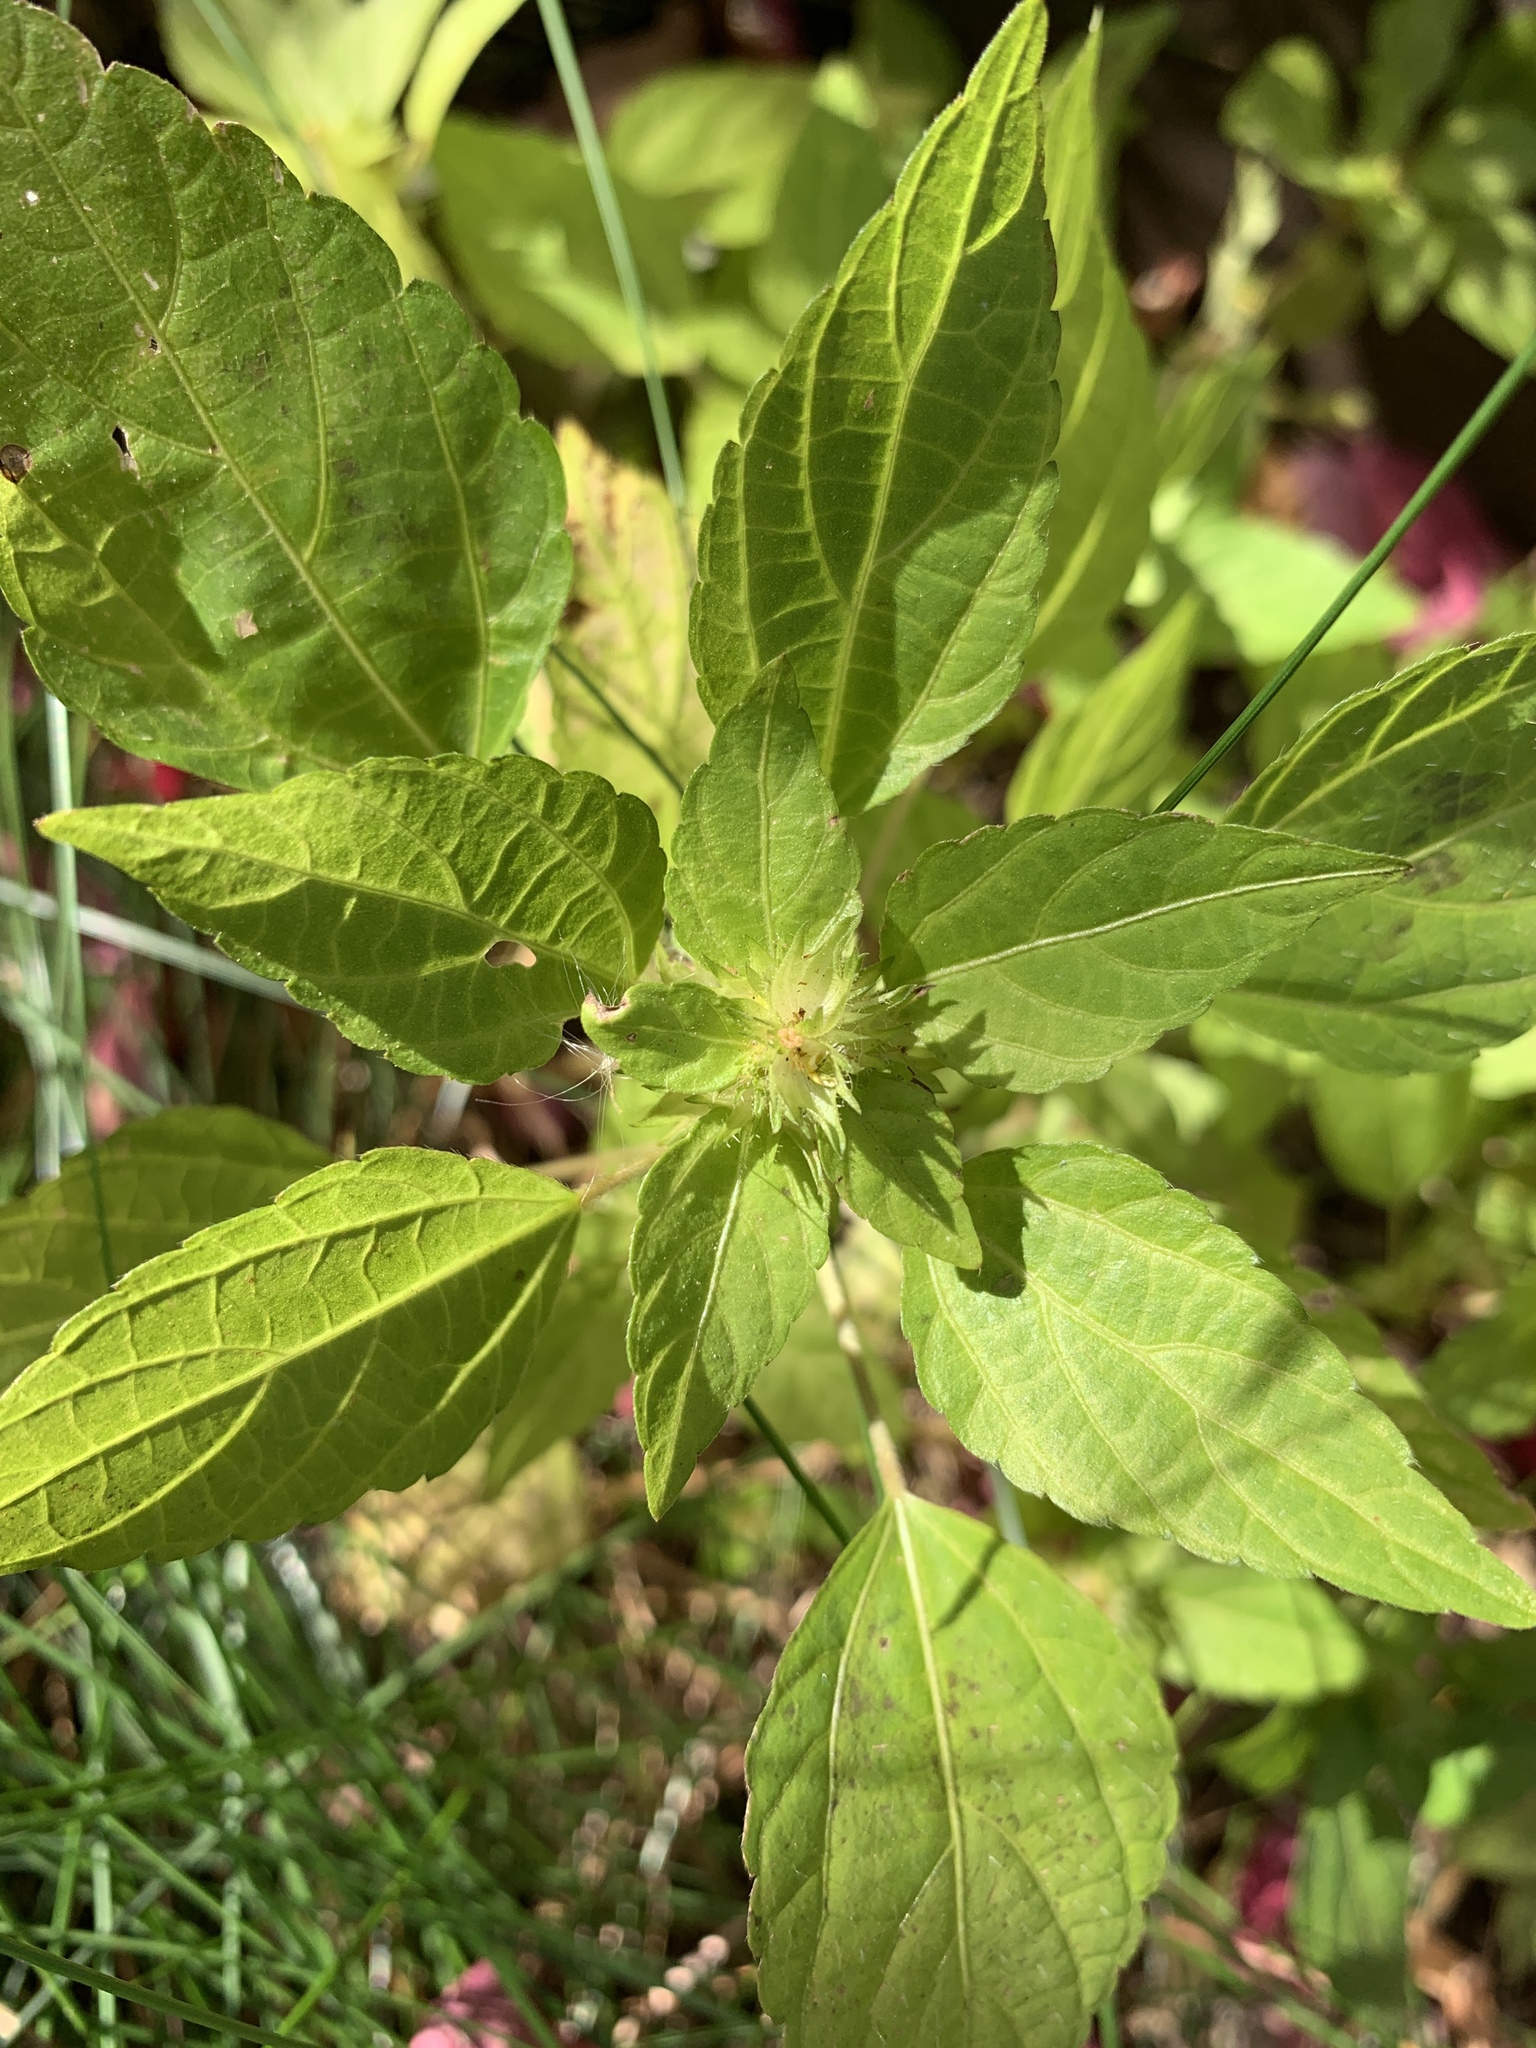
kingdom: Plantae
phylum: Tracheophyta
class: Magnoliopsida
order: Malpighiales
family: Euphorbiaceae
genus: Acalypha
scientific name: Acalypha rhomboidea
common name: Rhombic copperleaf
